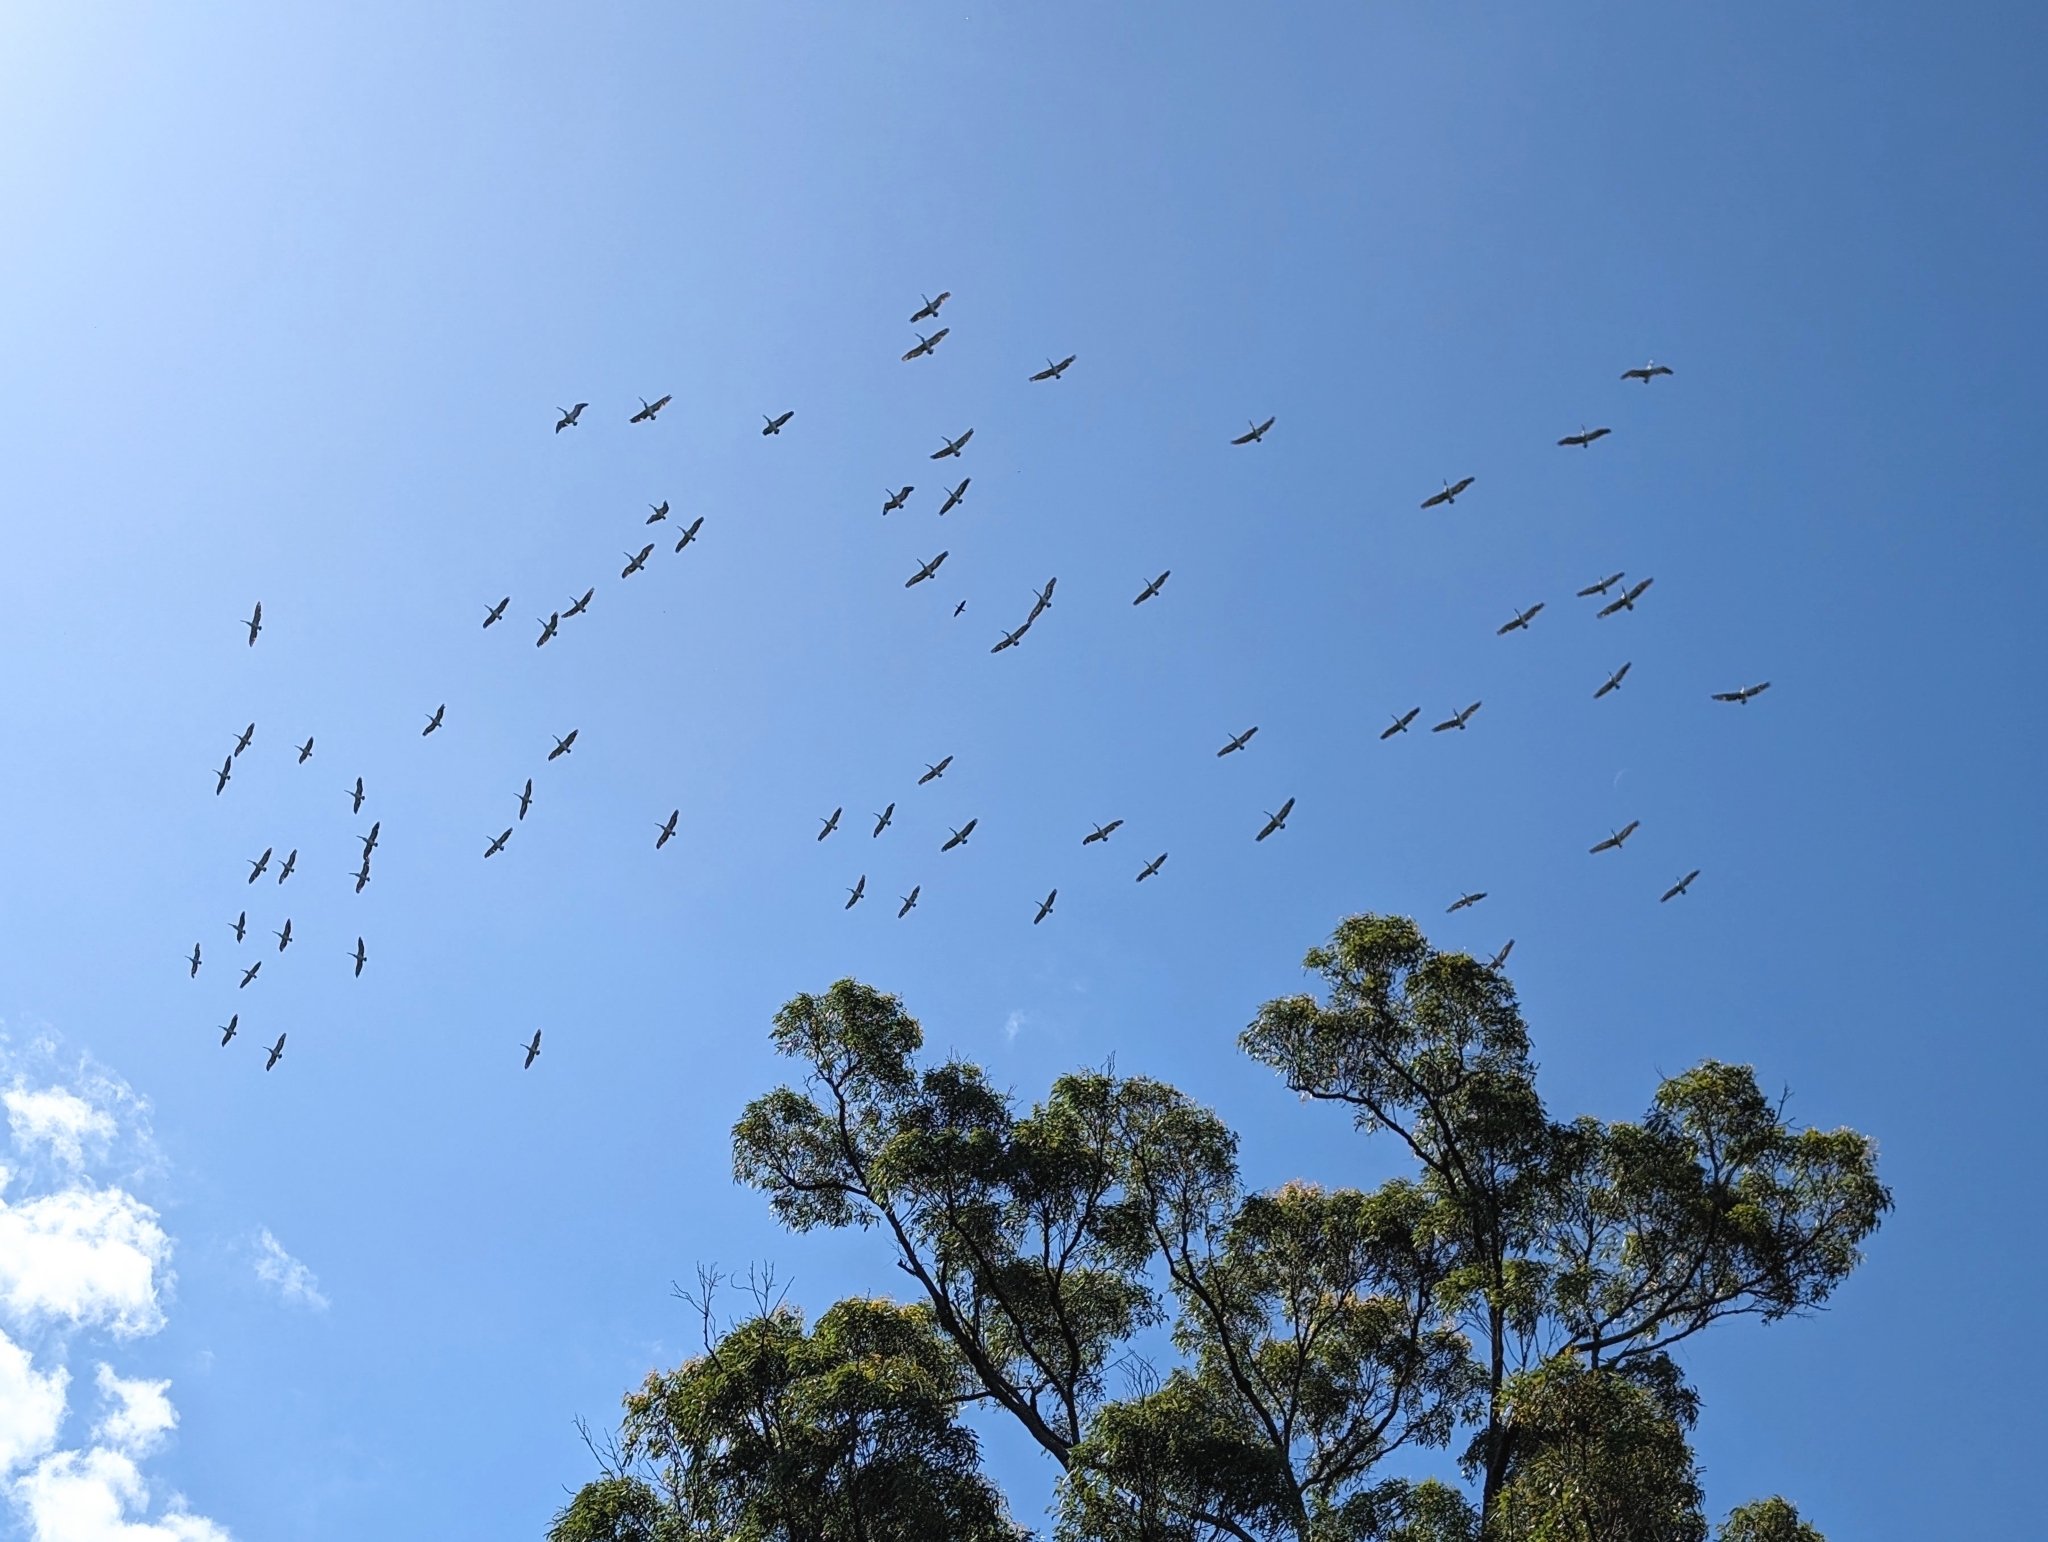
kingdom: Animalia
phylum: Chordata
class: Aves
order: Pelecaniformes
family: Pelecanidae
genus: Pelecanus
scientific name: Pelecanus conspicillatus
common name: Australian pelican
